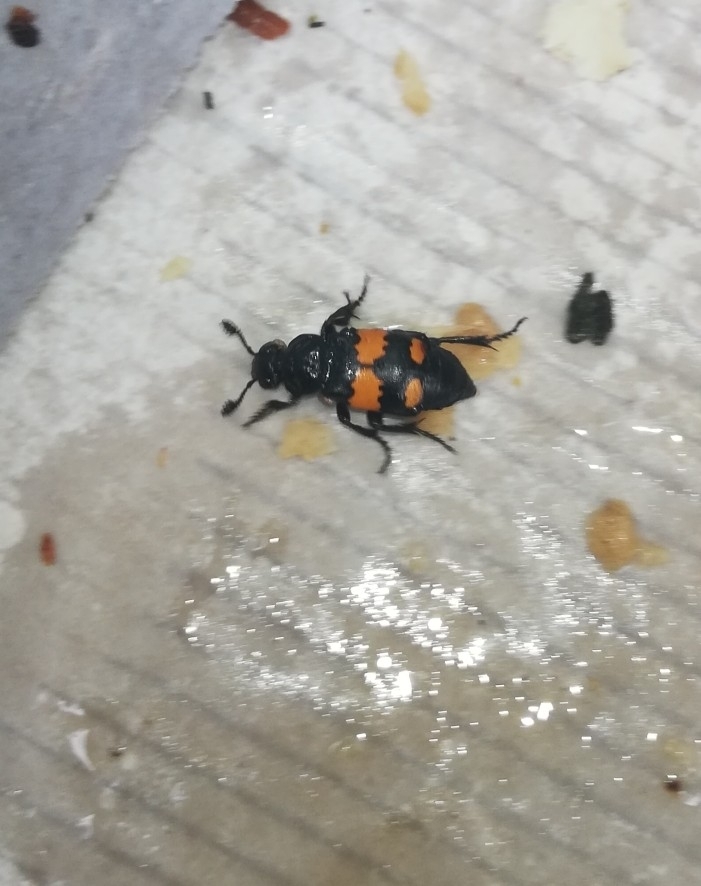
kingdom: Animalia
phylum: Arthropoda
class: Insecta
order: Coleoptera
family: Staphylinidae
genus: Nicrophorus
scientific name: Nicrophorus vespilloides
